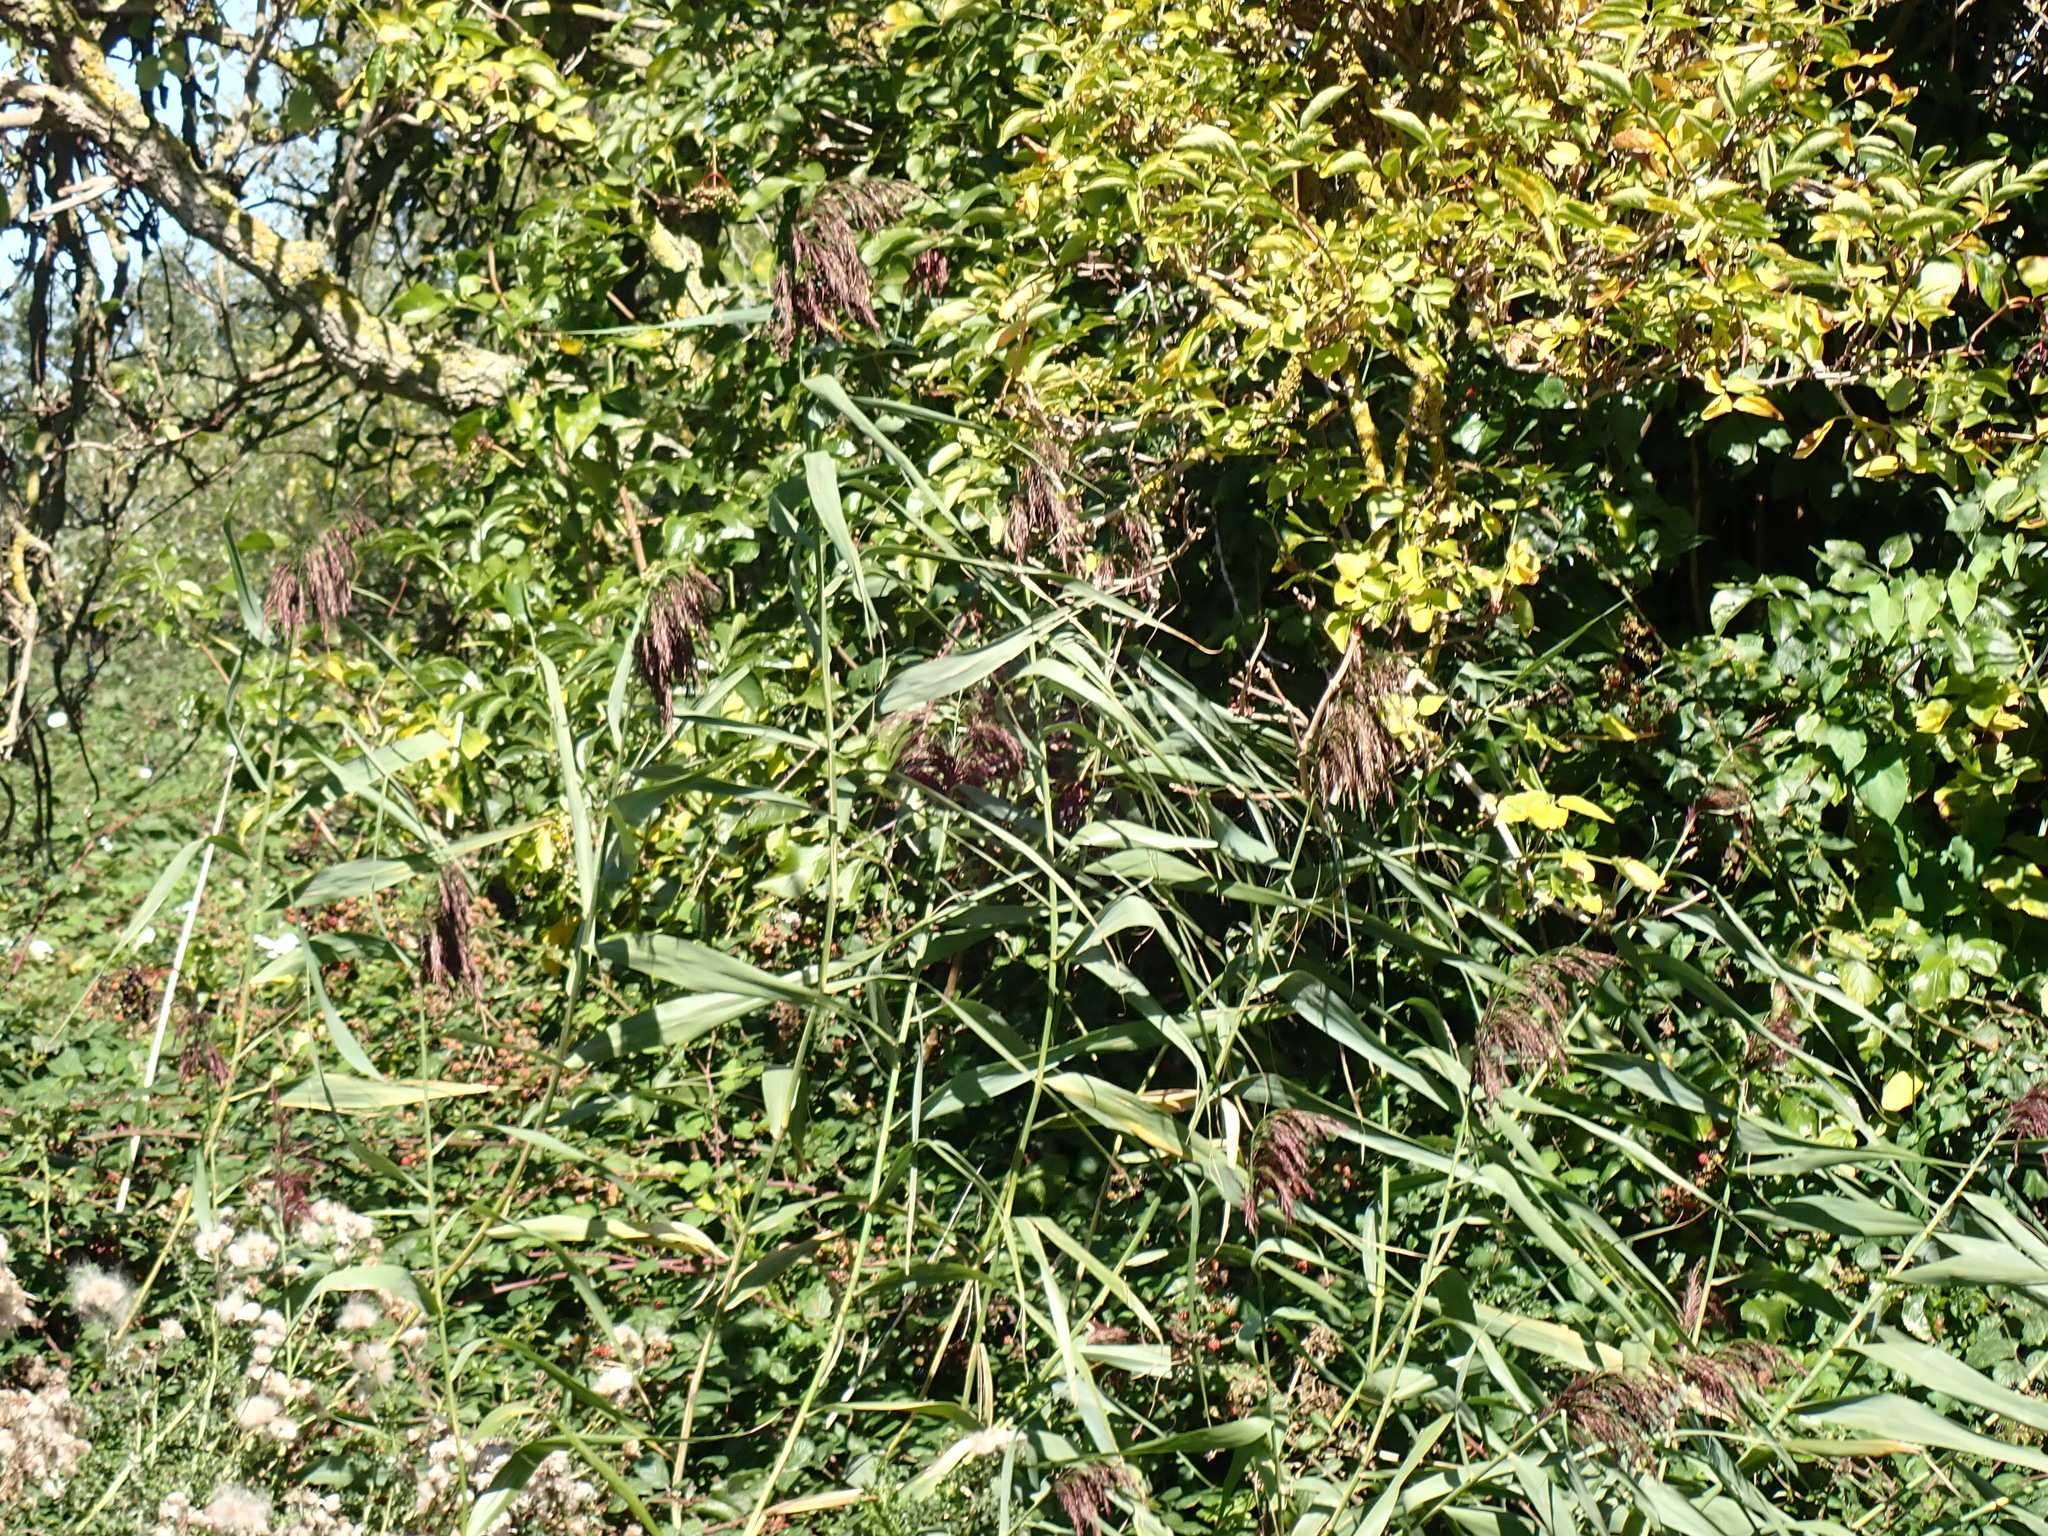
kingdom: Plantae
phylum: Tracheophyta
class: Liliopsida
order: Poales
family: Poaceae
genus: Phragmites
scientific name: Phragmites australis
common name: Common reed
